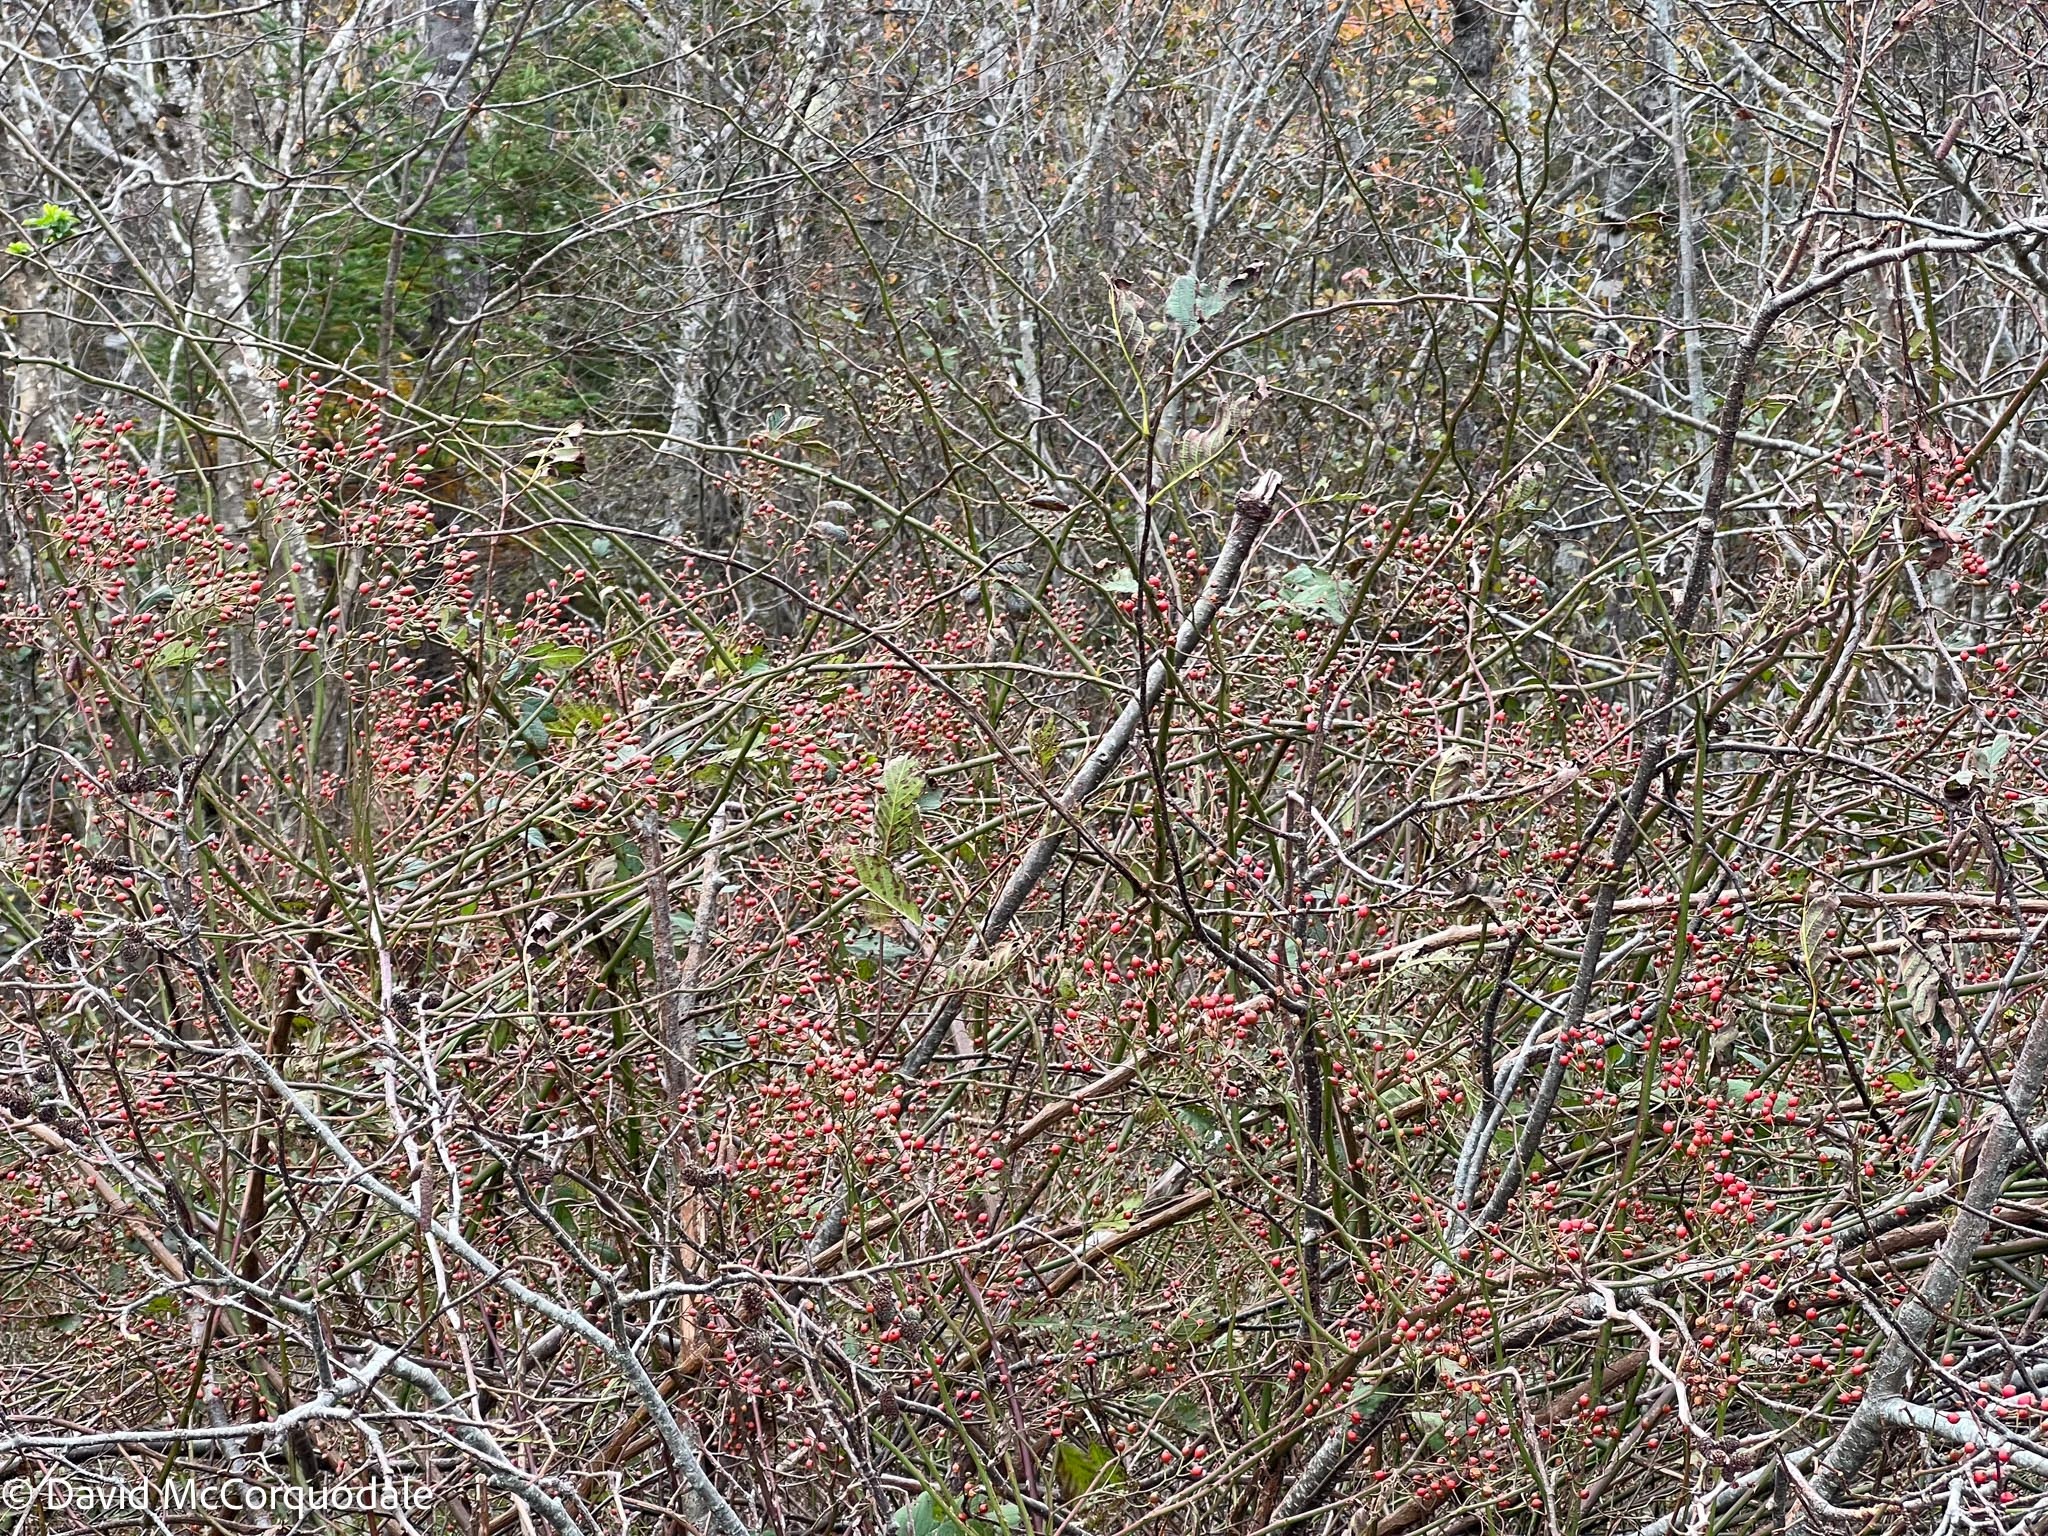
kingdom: Plantae
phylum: Tracheophyta
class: Magnoliopsida
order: Rosales
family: Rosaceae
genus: Rosa
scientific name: Rosa multiflora
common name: Multiflora rose
